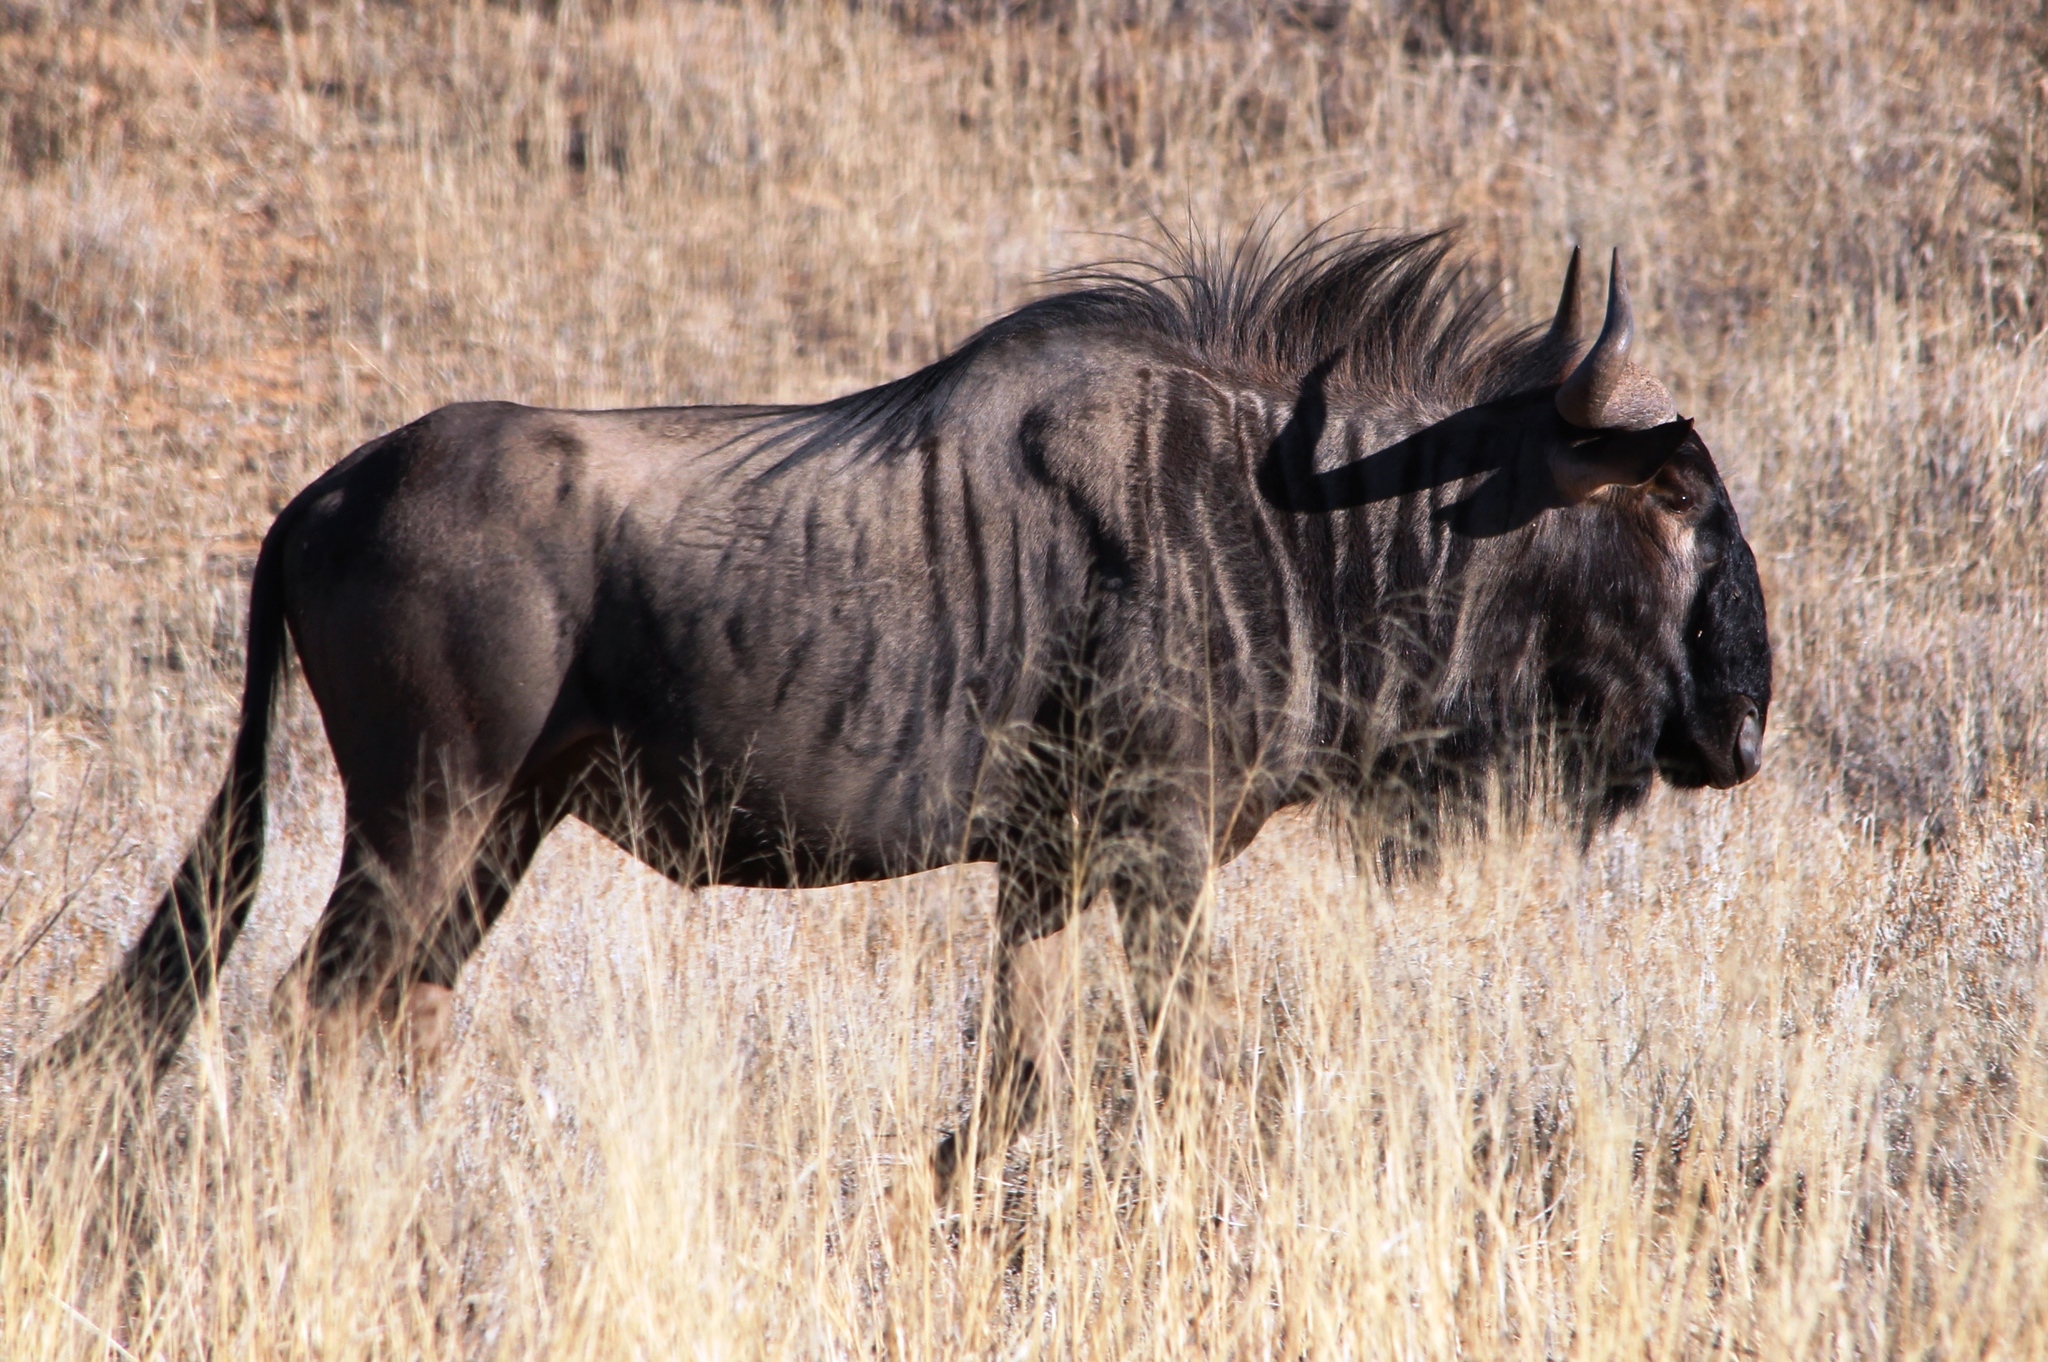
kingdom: Animalia
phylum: Chordata
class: Mammalia
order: Artiodactyla
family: Bovidae
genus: Connochaetes
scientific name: Connochaetes taurinus
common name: Blue wildebeest
